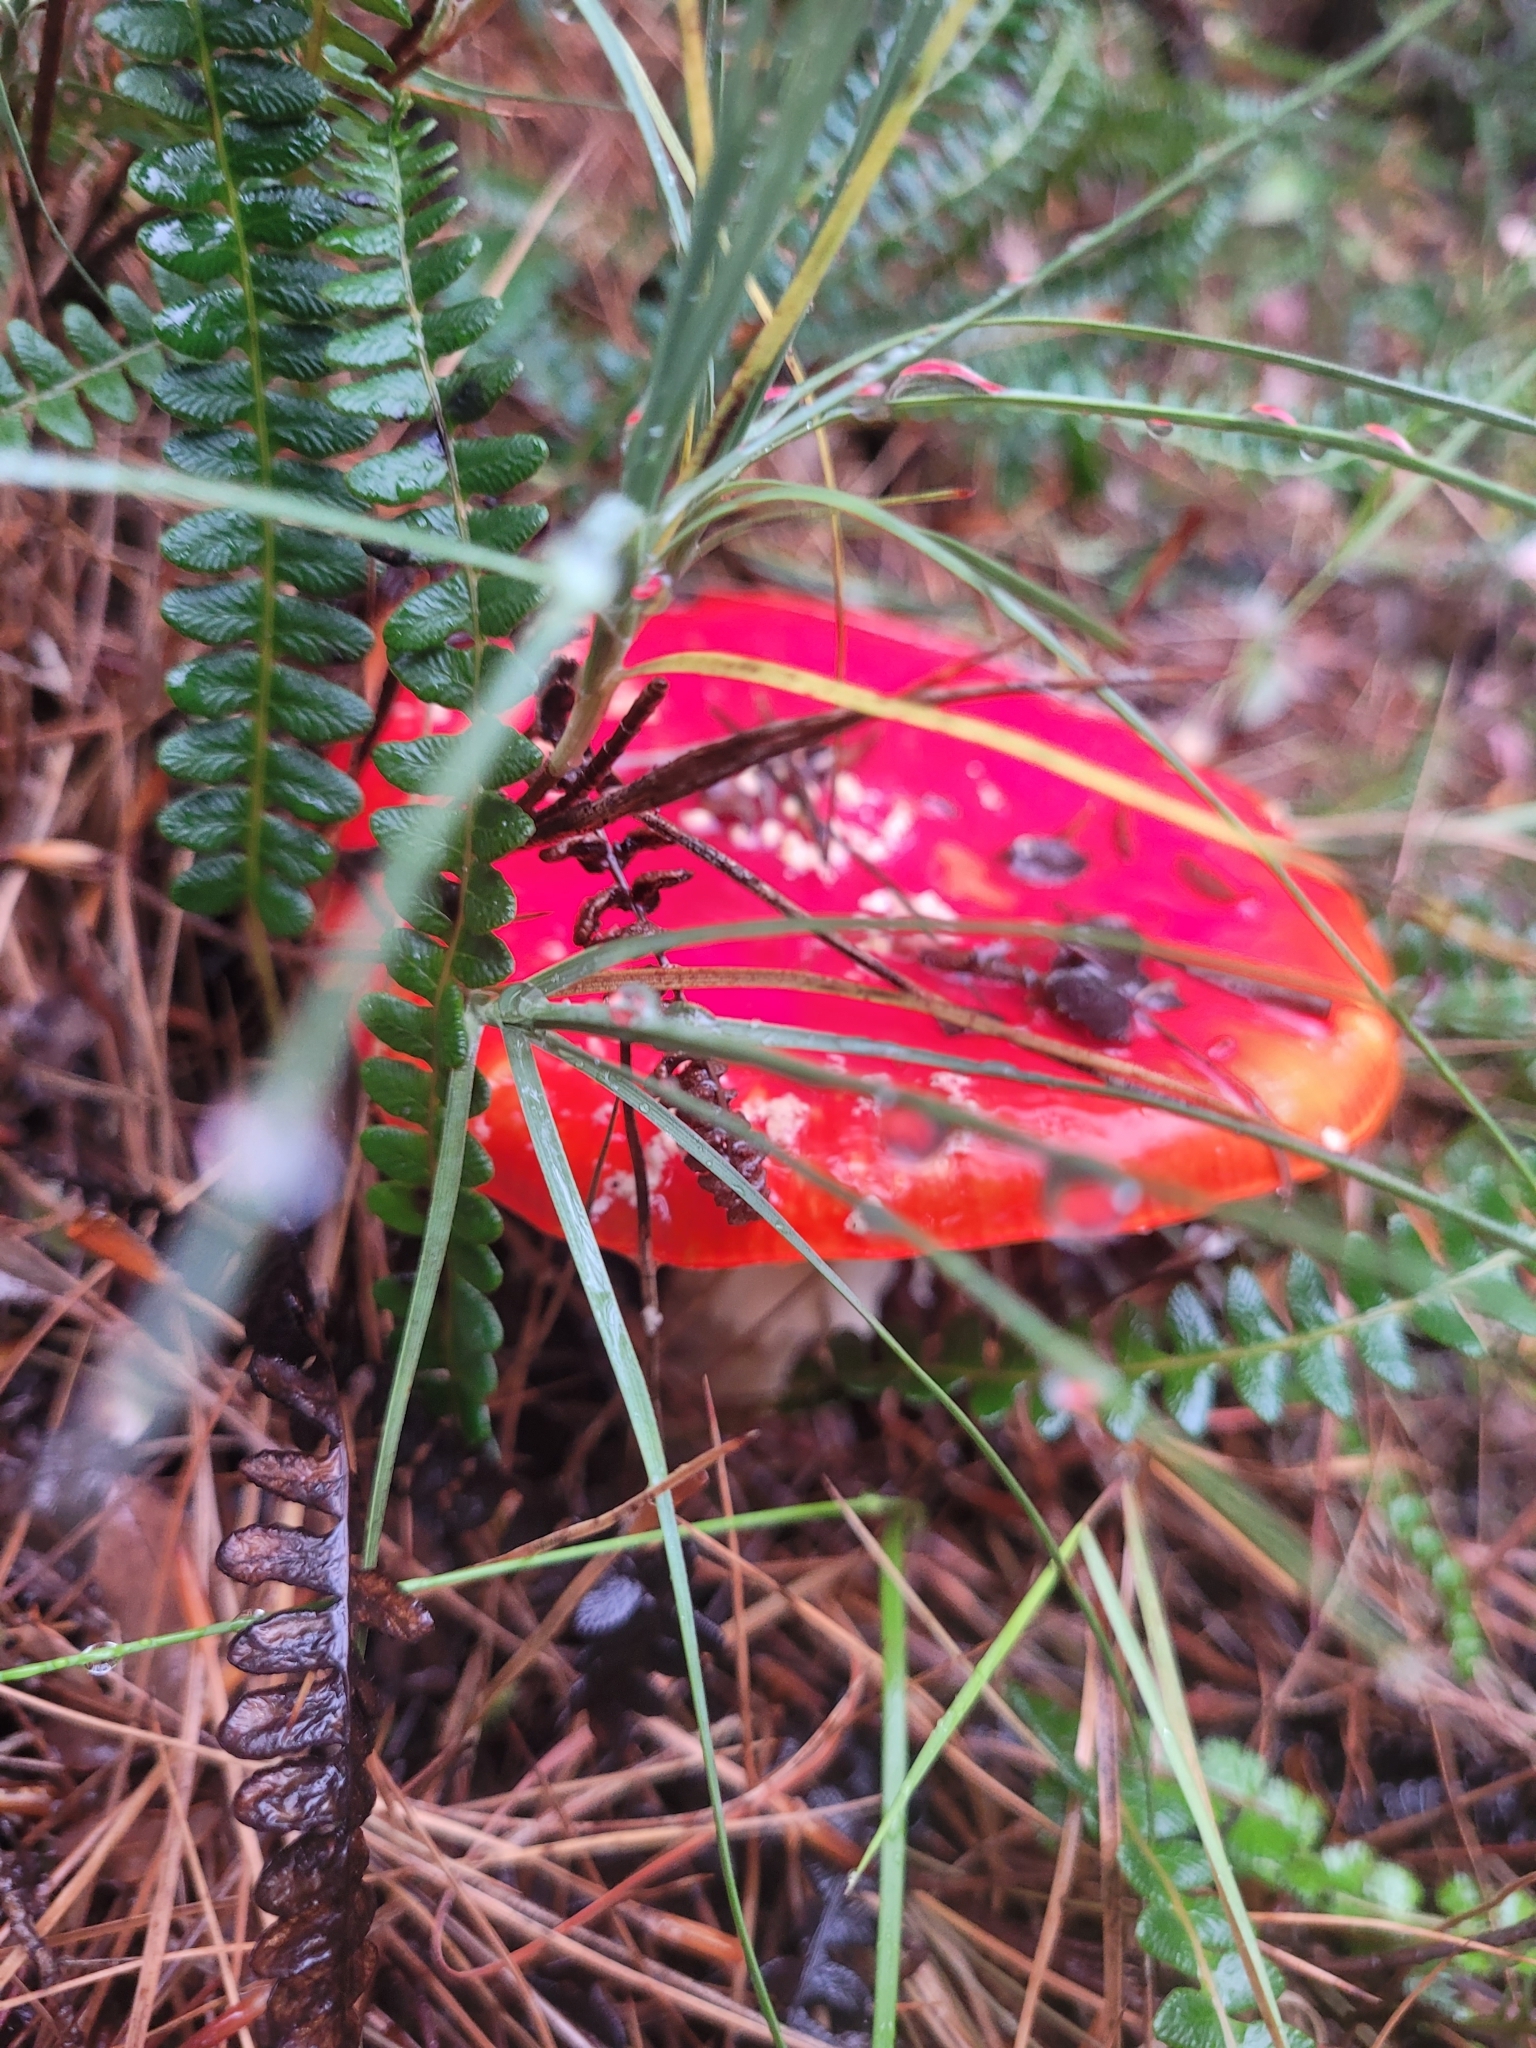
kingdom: Fungi
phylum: Basidiomycota
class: Agaricomycetes
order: Agaricales
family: Amanitaceae
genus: Amanita
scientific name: Amanita muscaria
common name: Fly agaric
